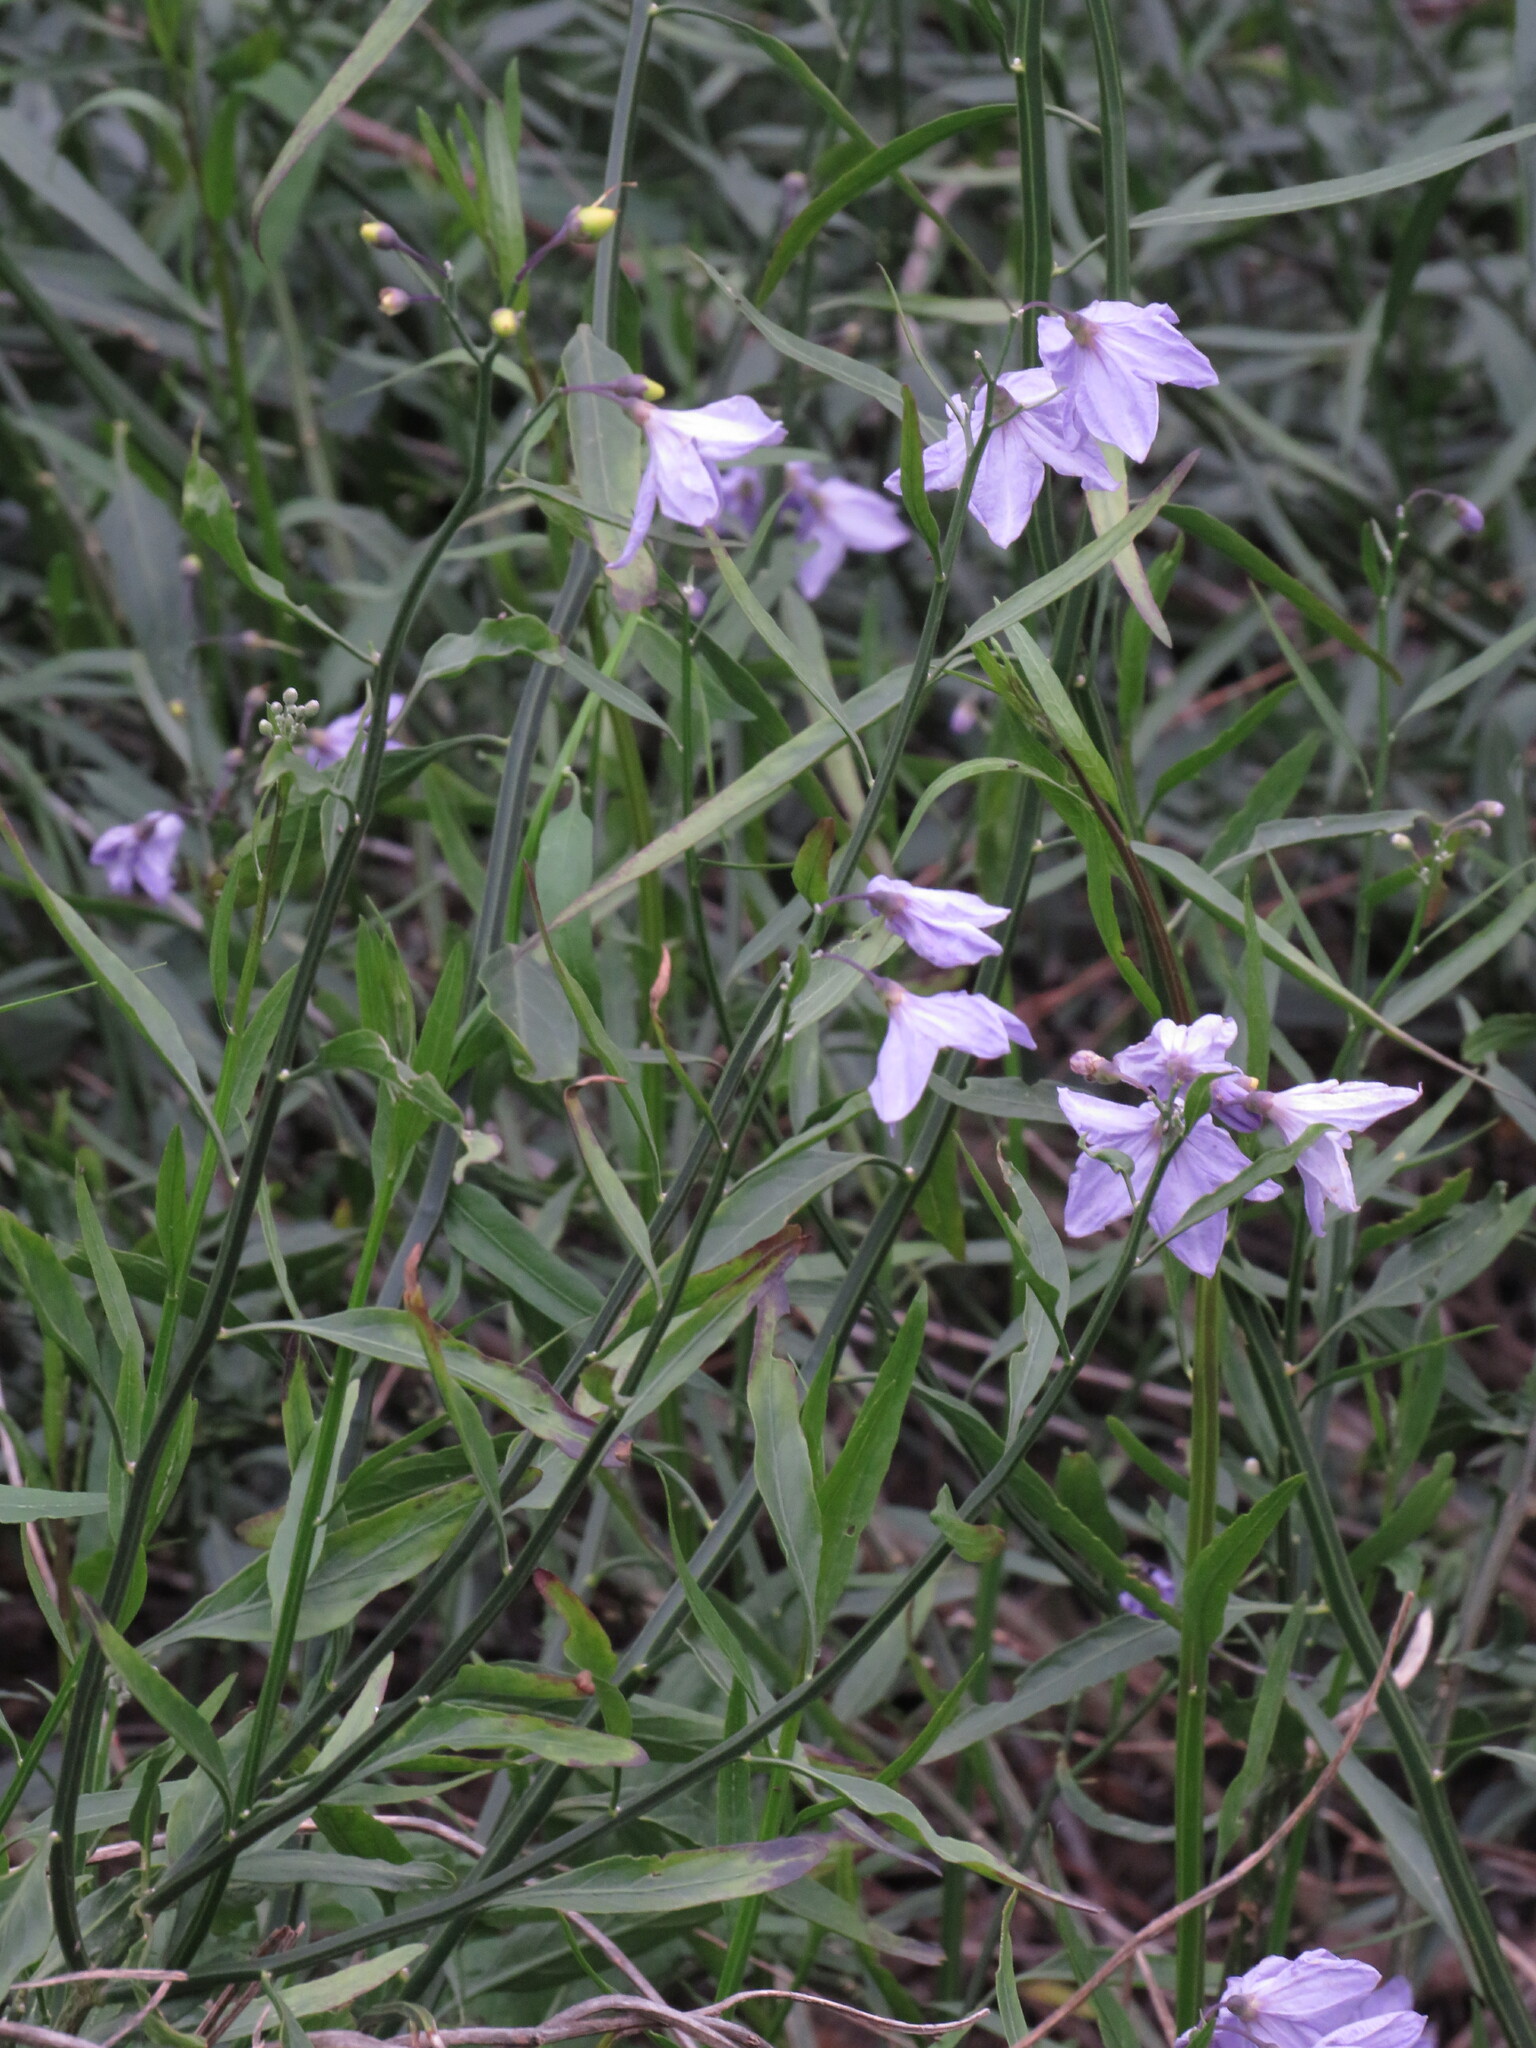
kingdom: Plantae
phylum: Tracheophyta
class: Magnoliopsida
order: Solanales
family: Solanaceae
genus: Solanum
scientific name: Solanum amygdalifolium
